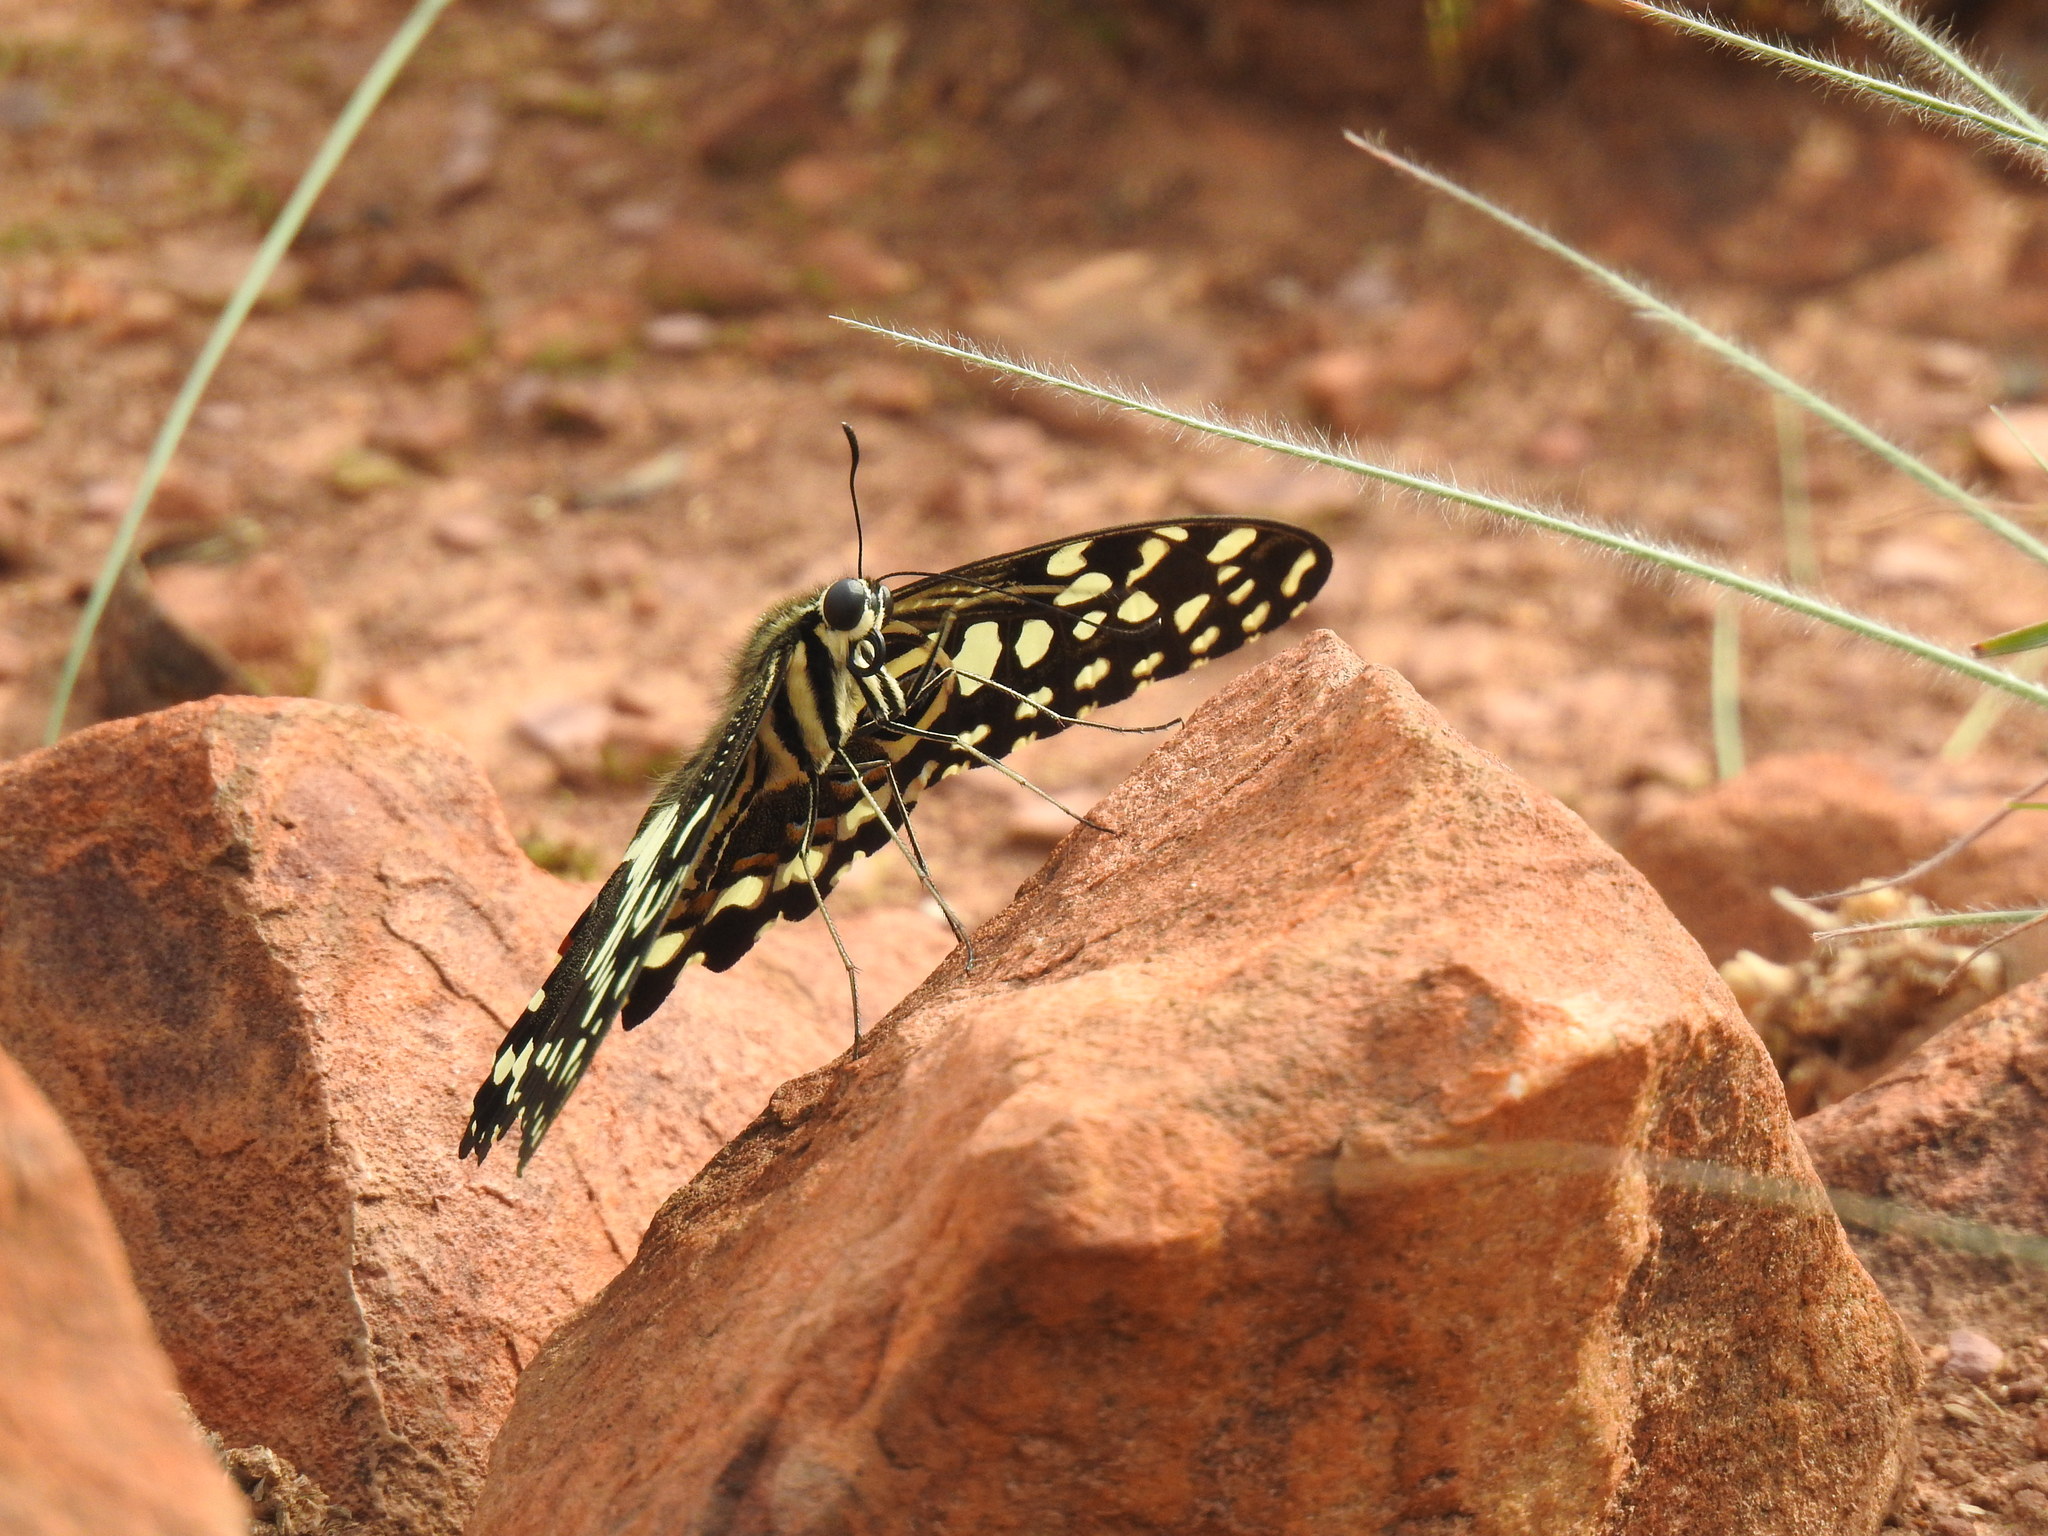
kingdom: Animalia
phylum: Arthropoda
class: Insecta
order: Lepidoptera
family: Papilionidae
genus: Papilio
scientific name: Papilio demodocus
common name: Christmas butterfly
